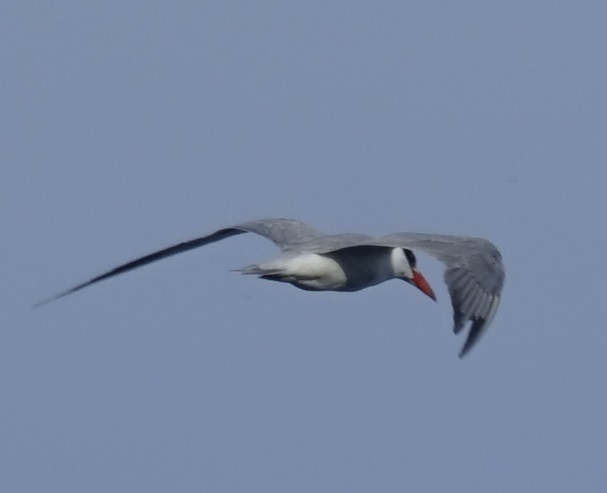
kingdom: Animalia
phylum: Chordata
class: Aves
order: Charadriiformes
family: Laridae
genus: Hydroprogne
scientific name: Hydroprogne caspia
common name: Caspian tern
